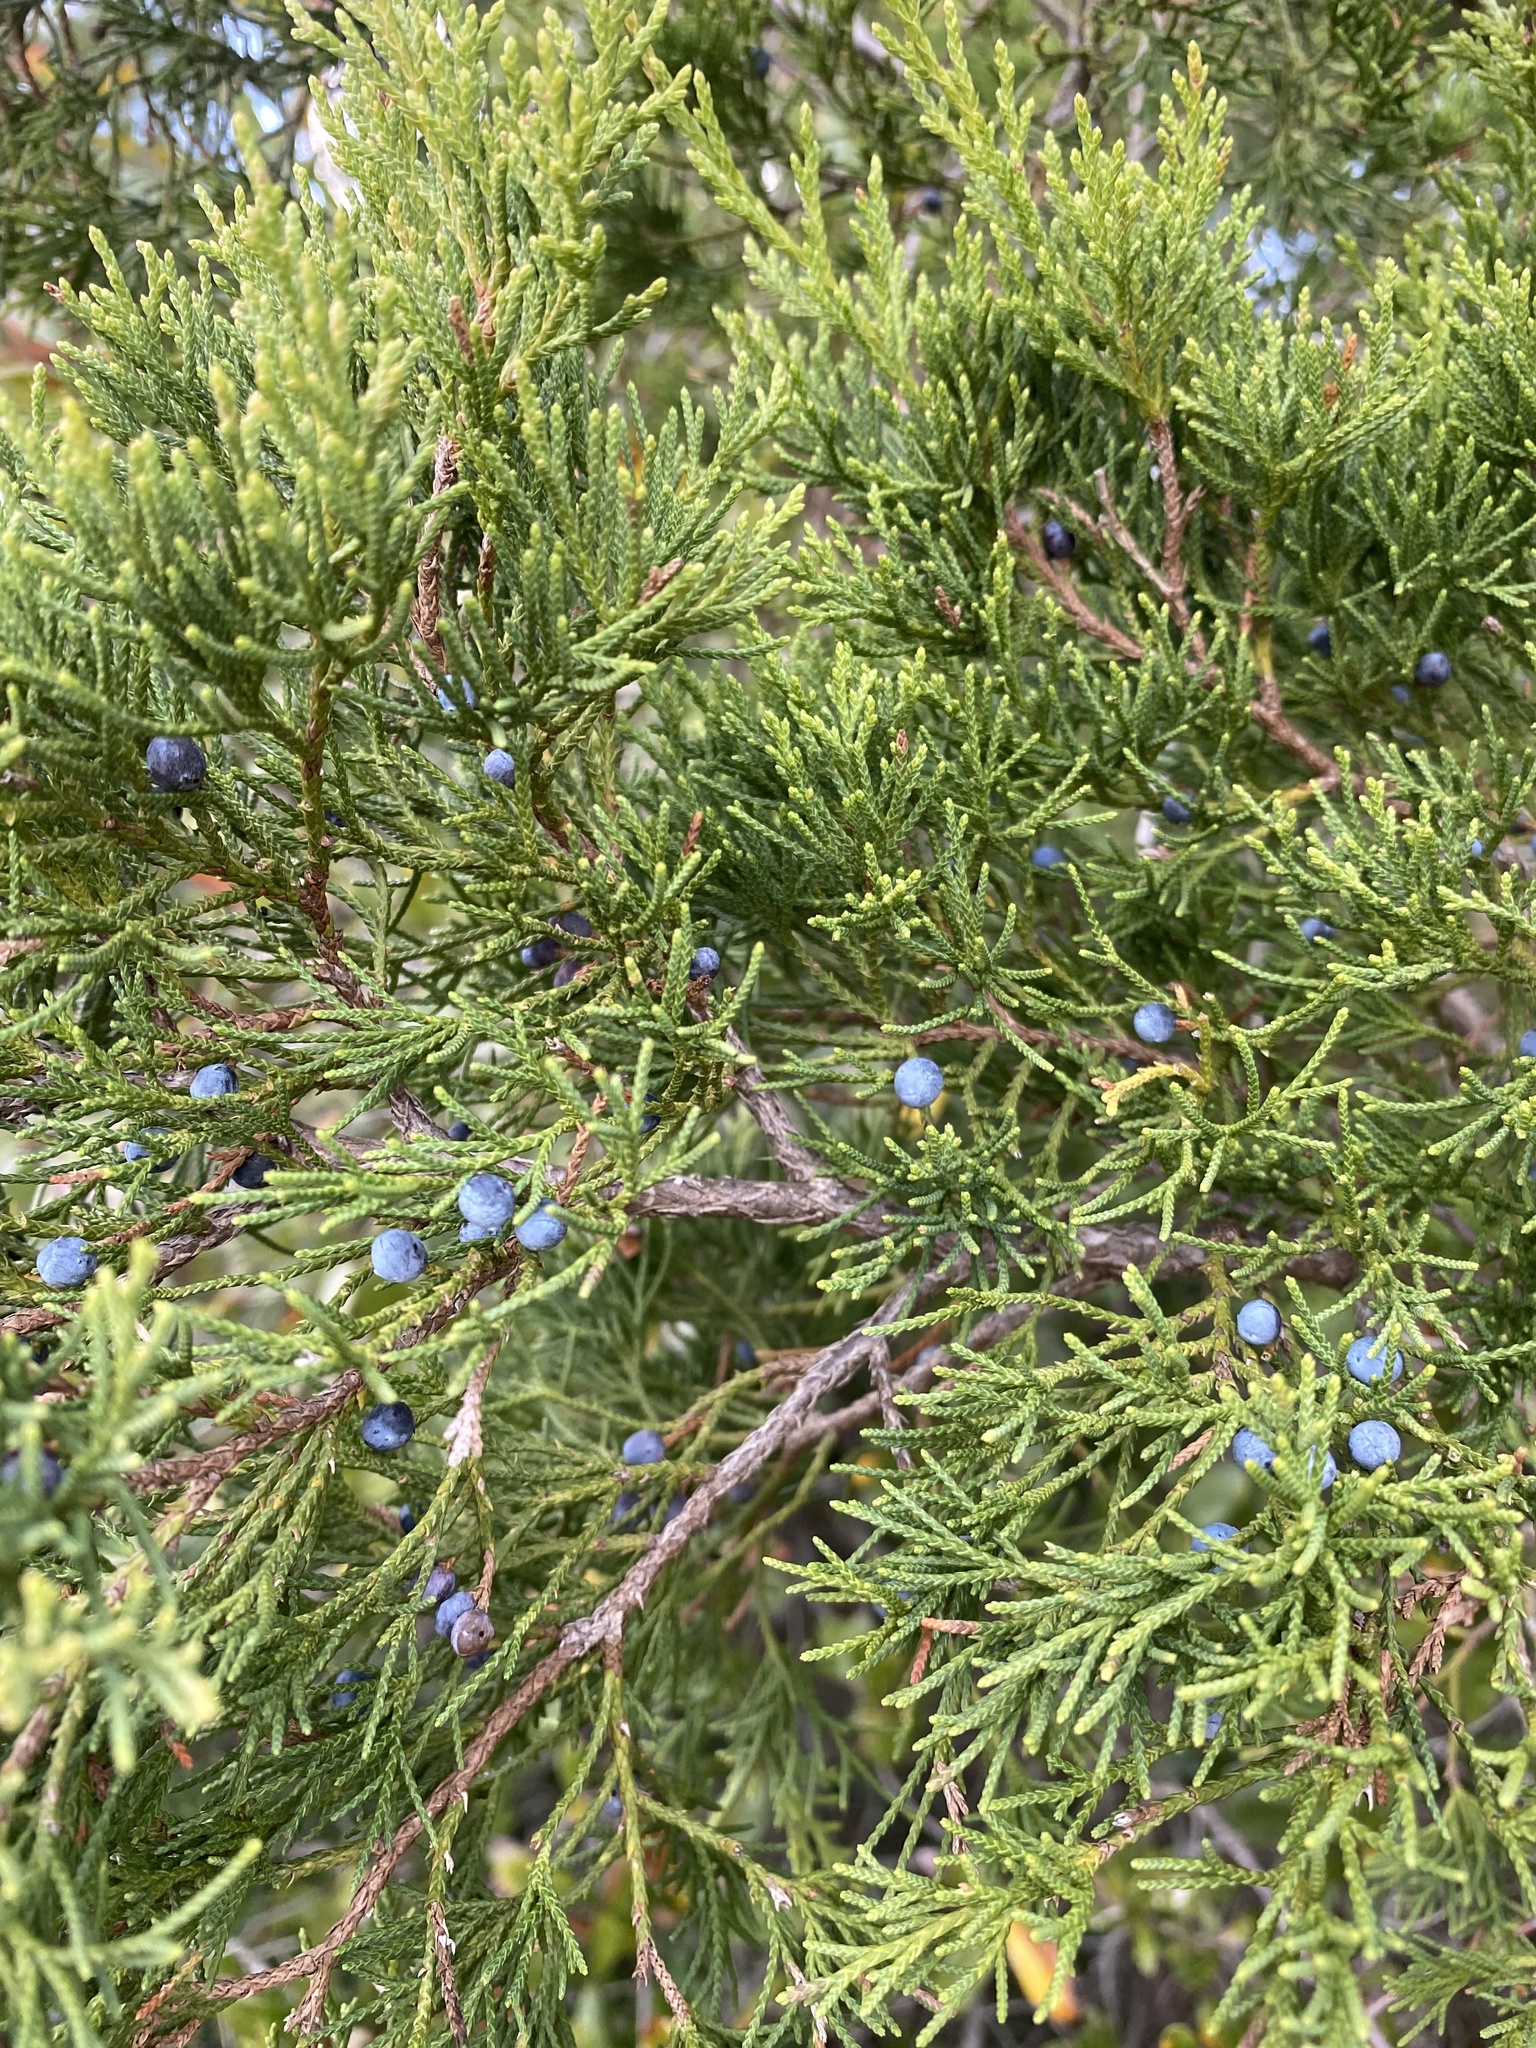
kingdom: Plantae
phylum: Tracheophyta
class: Pinopsida
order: Pinales
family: Cupressaceae
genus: Juniperus
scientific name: Juniperus virginiana
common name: Red juniper
